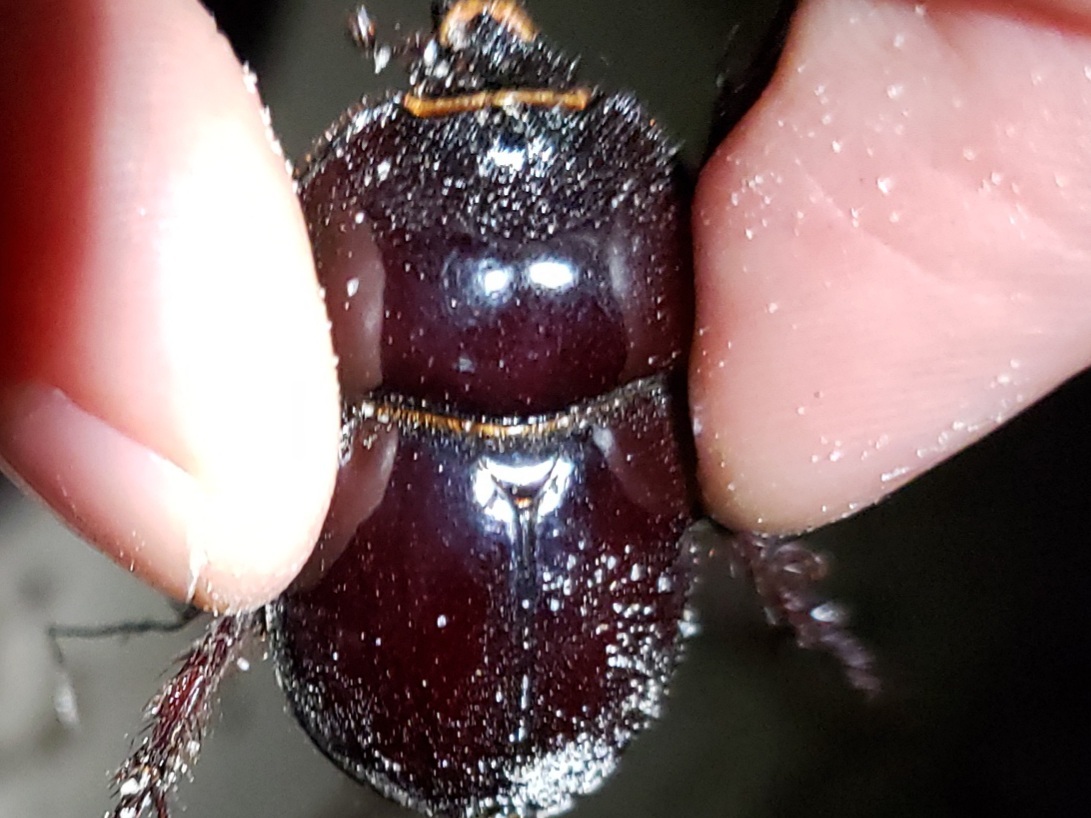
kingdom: Animalia
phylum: Arthropoda
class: Insecta
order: Coleoptera
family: Scarabaeidae
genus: Strategus
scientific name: Strategus antaeus
